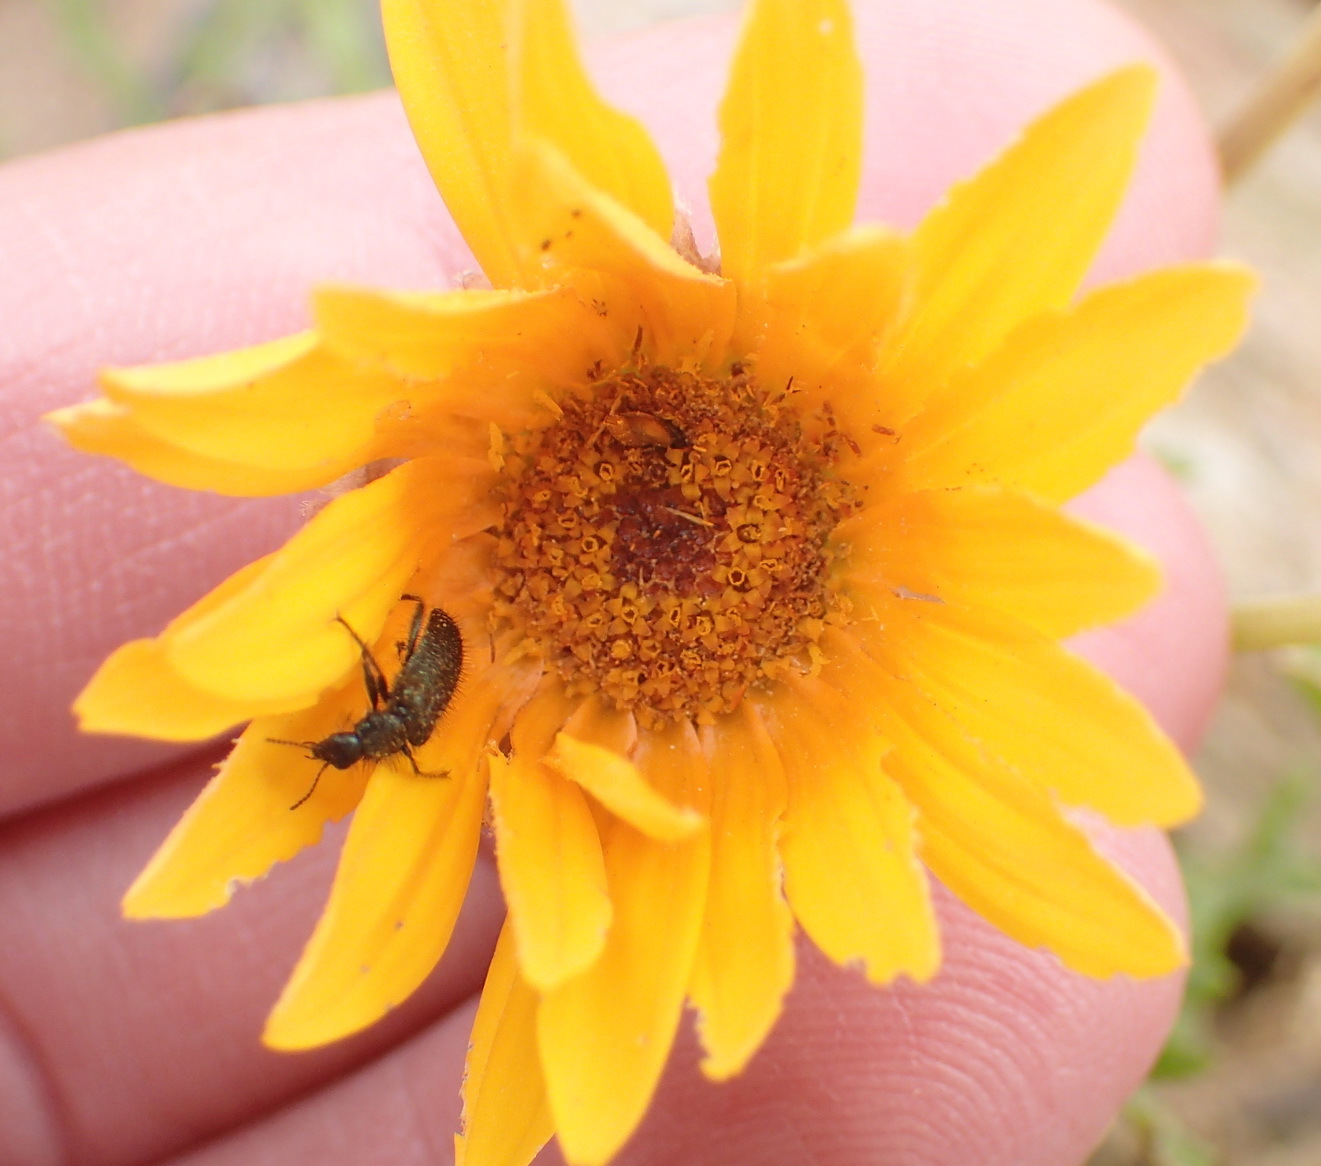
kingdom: Plantae
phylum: Tracheophyta
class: Magnoliopsida
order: Asterales
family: Asteraceae
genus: Arctotis
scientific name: Arctotis laciniata
